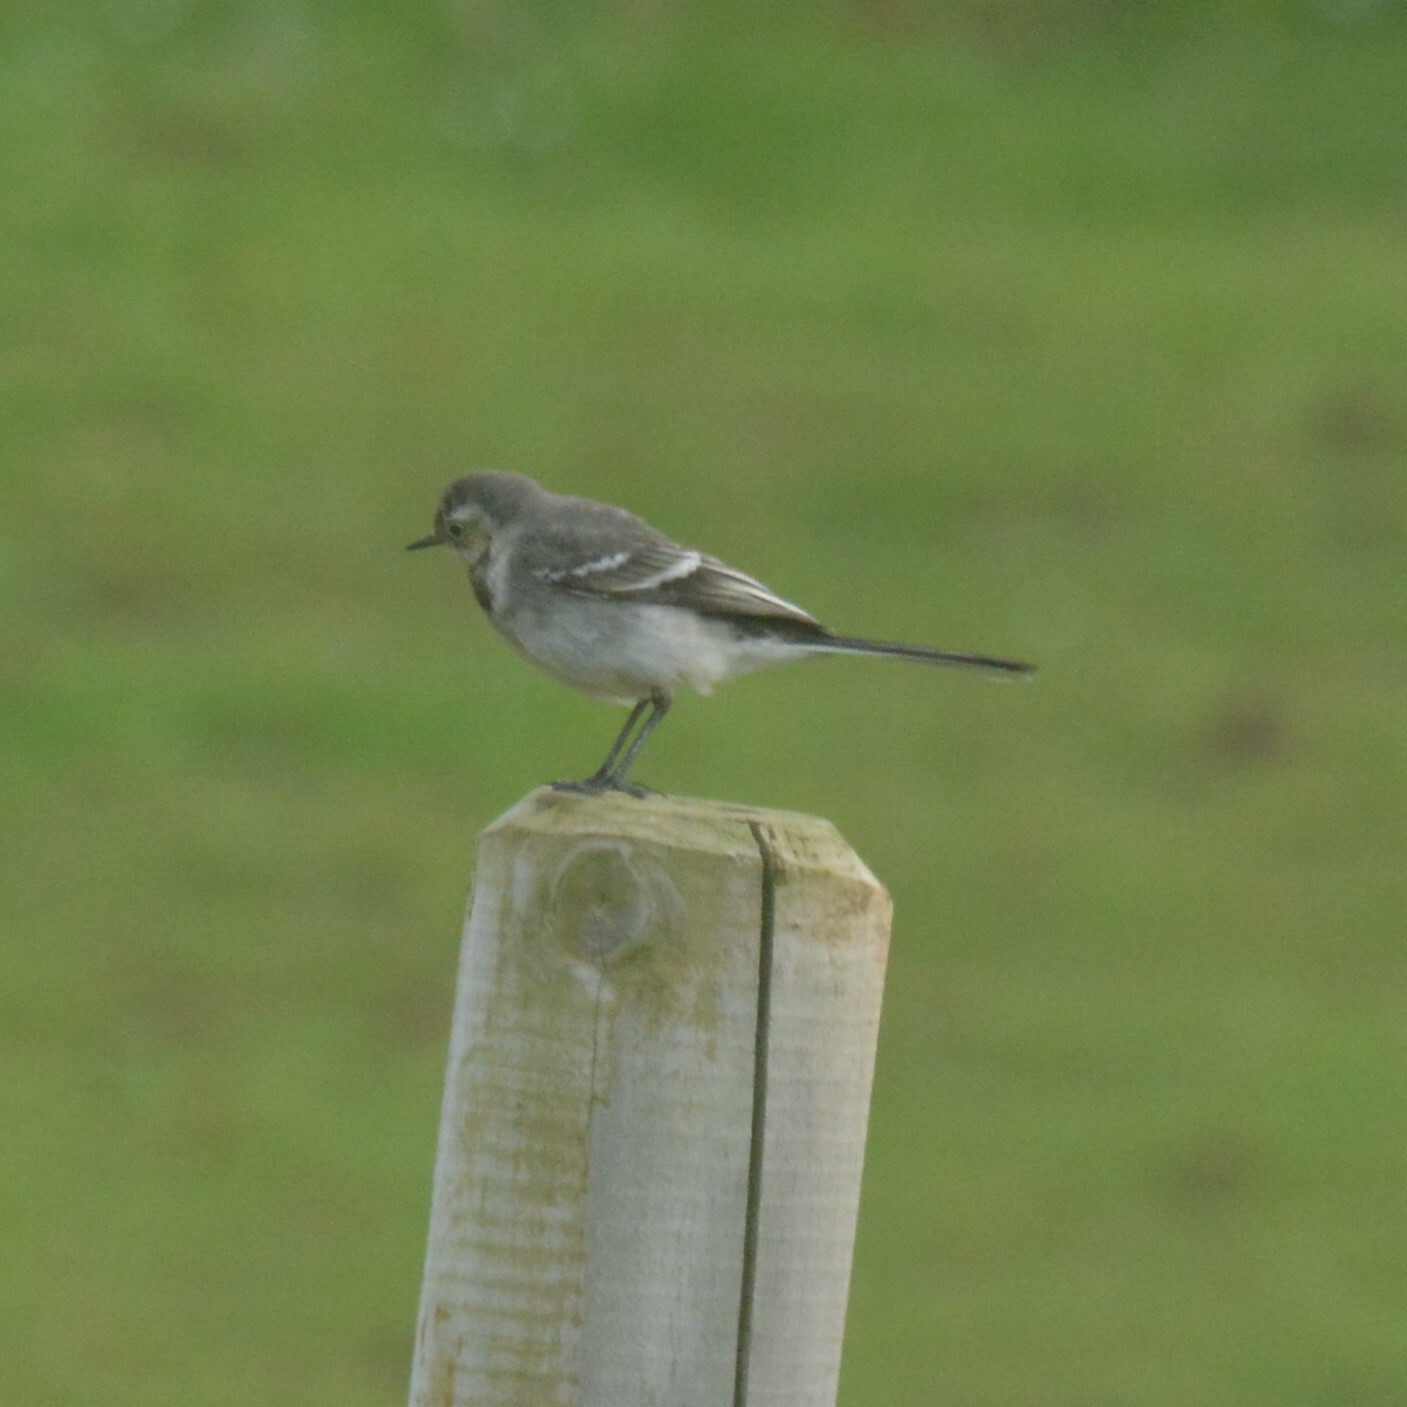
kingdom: Animalia
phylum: Chordata
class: Aves
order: Passeriformes
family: Motacillidae
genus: Motacilla
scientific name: Motacilla alba
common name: White wagtail
